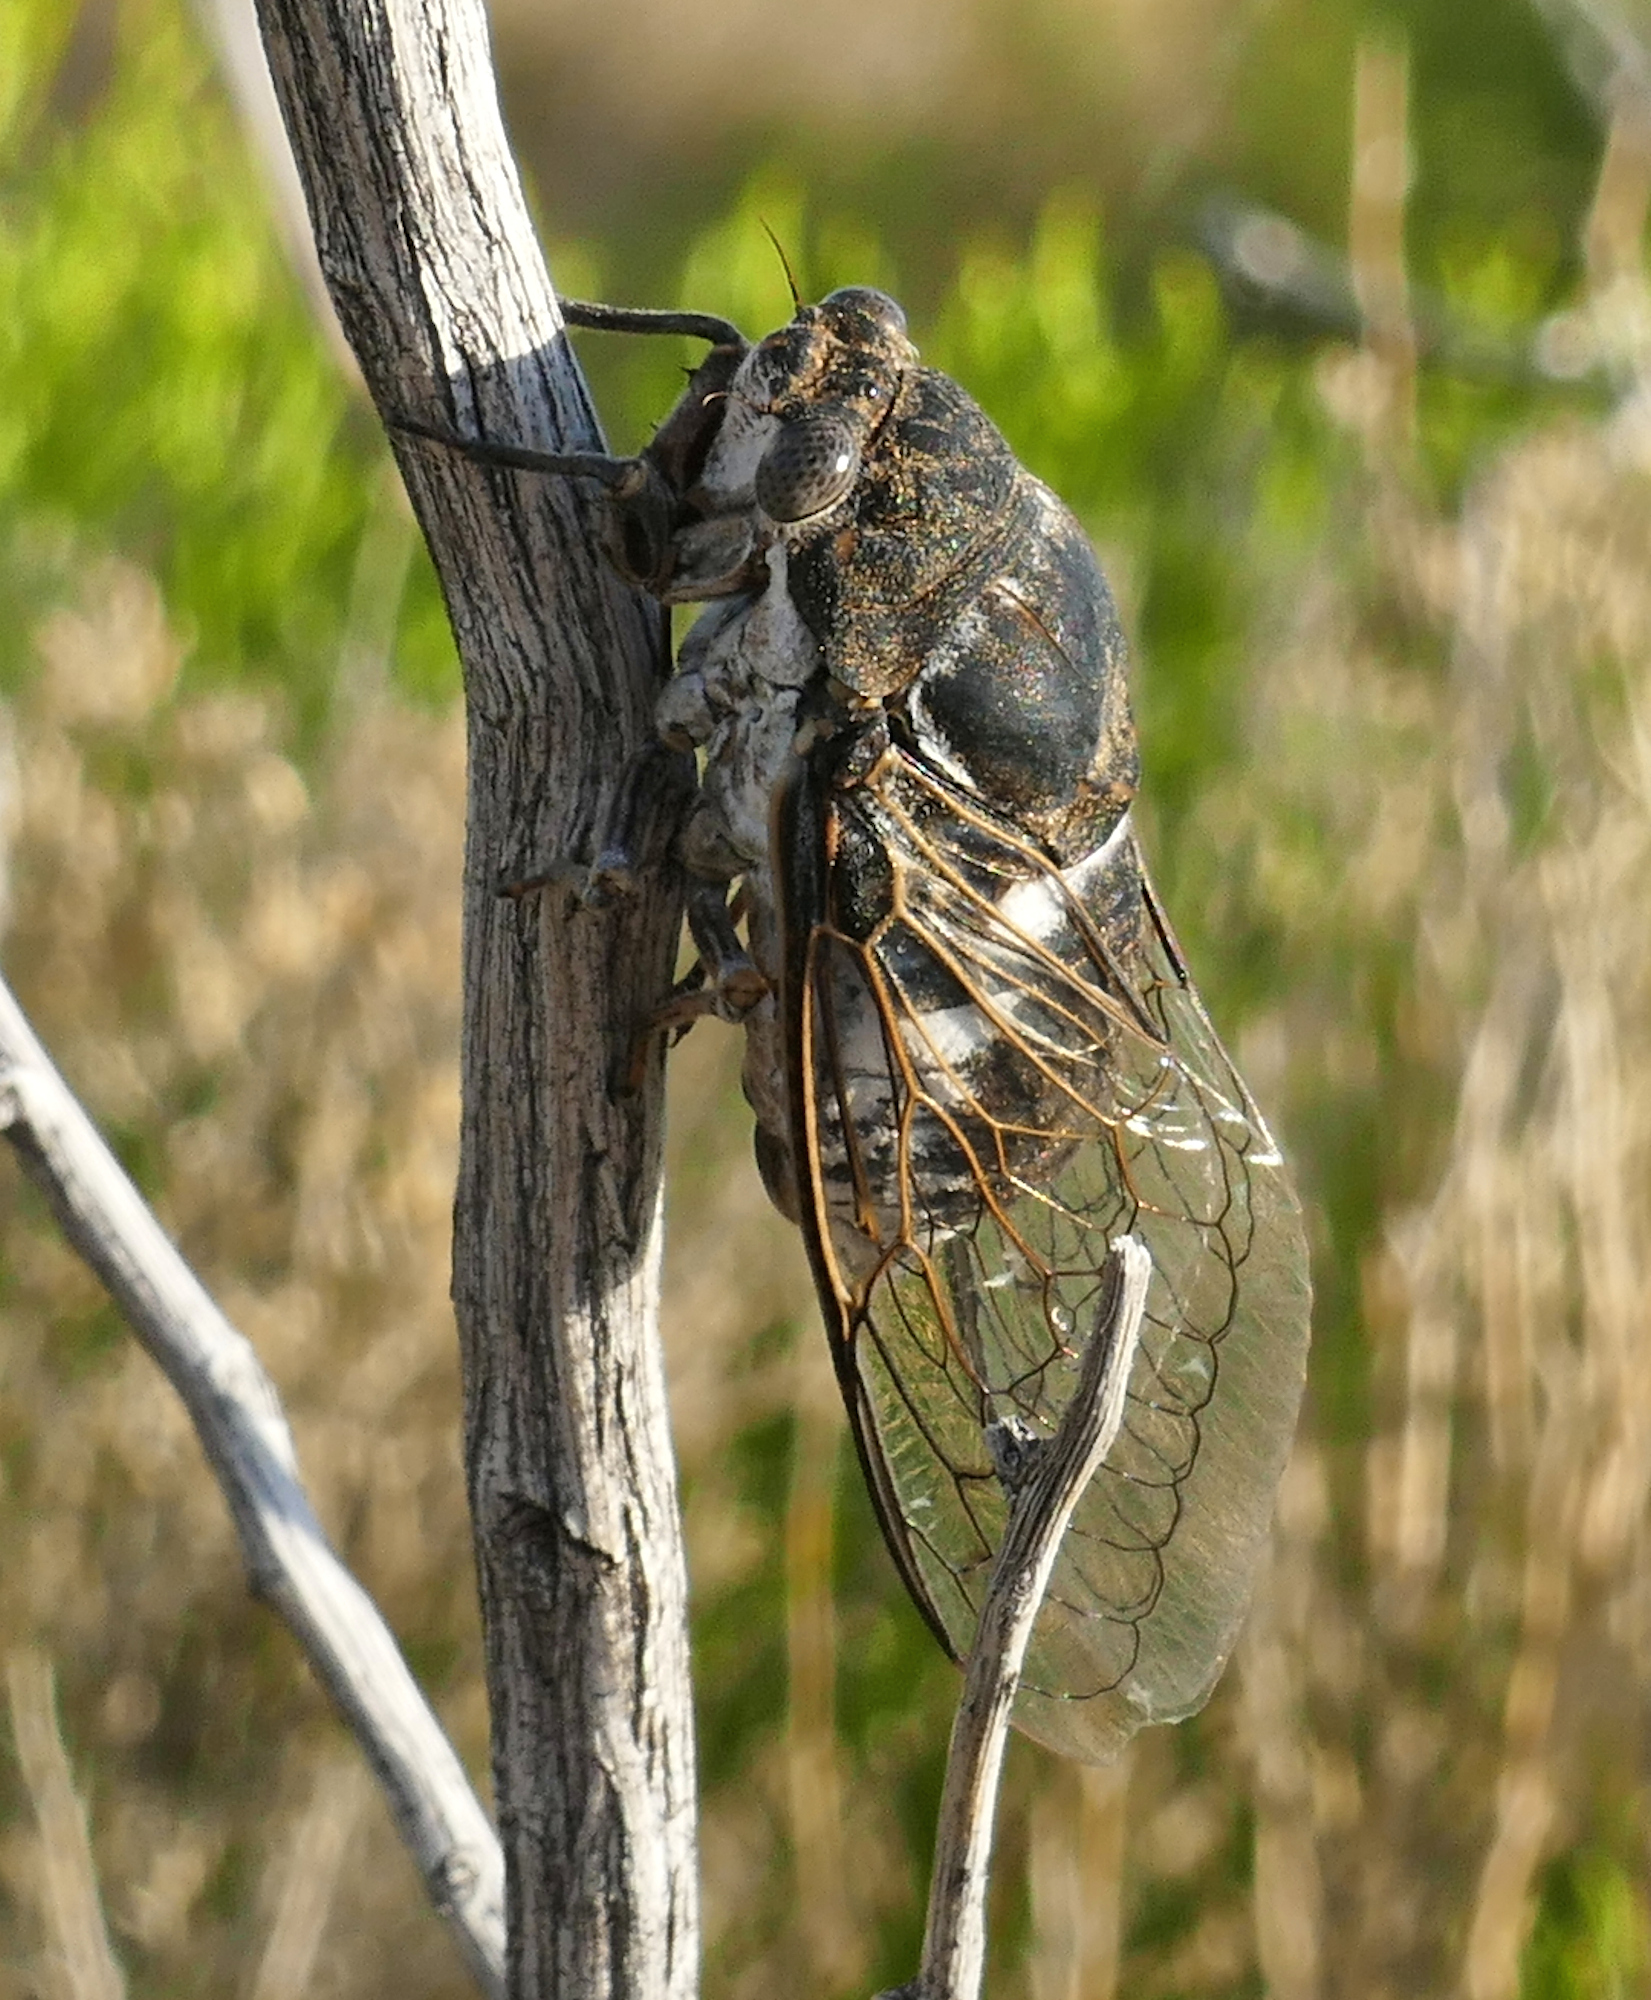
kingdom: Animalia
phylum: Arthropoda
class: Insecta
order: Hemiptera
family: Cicadidae
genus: Cacama
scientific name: Cacama valvata
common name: Cactus dodger
